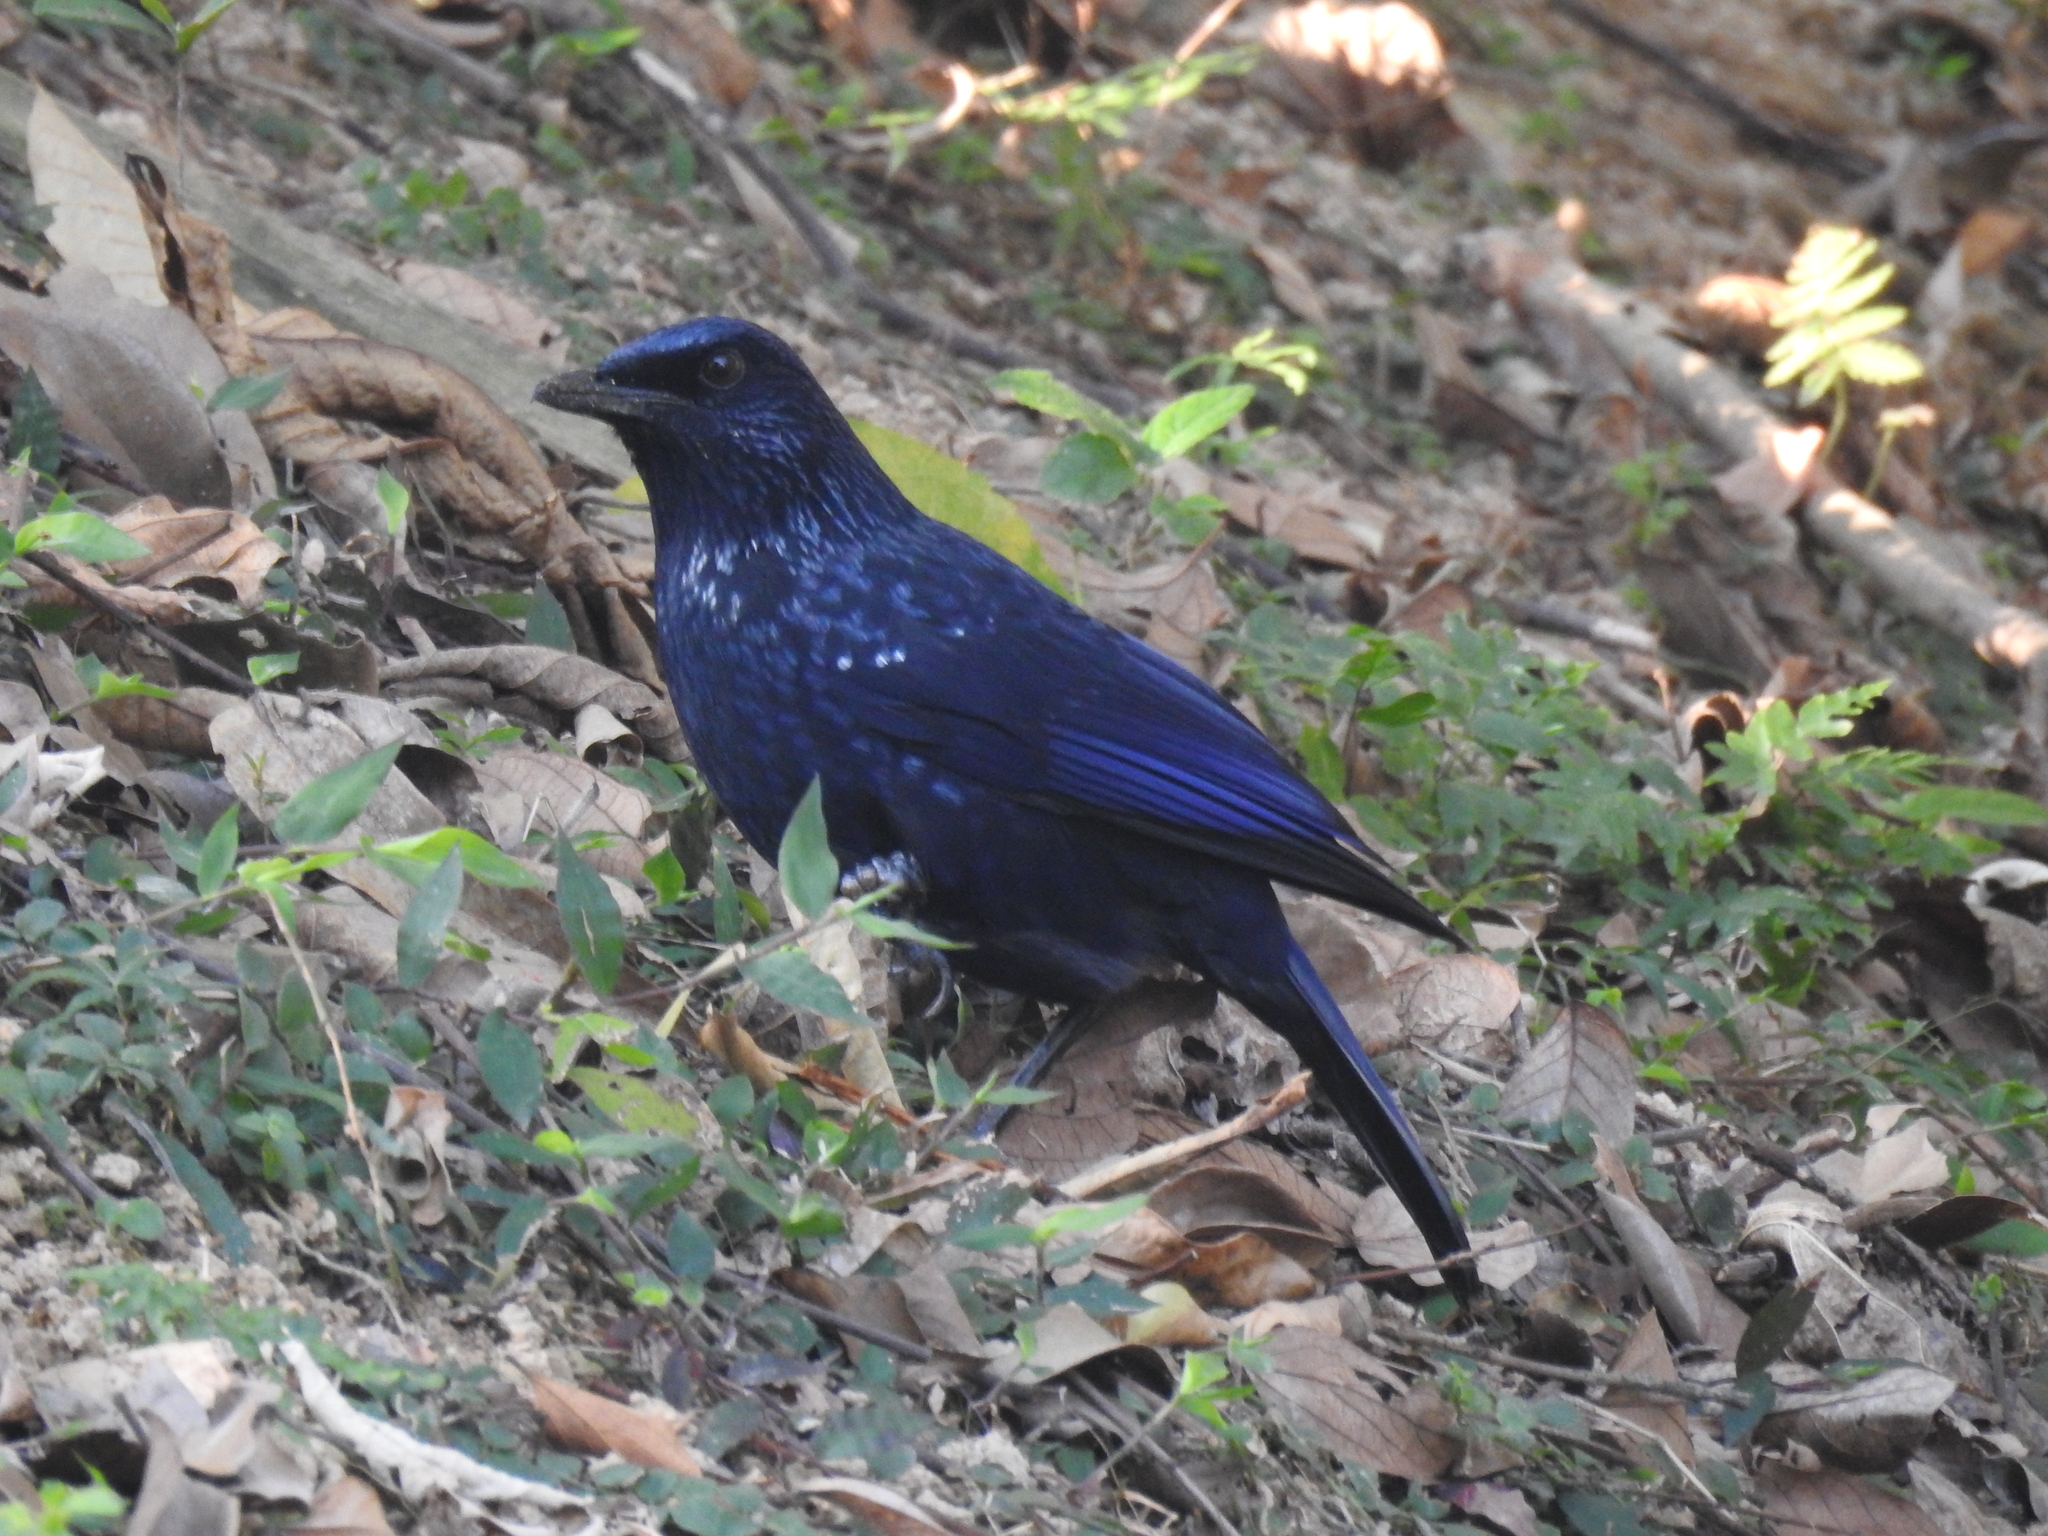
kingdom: Animalia
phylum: Chordata
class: Aves
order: Passeriformes
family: Muscicapidae
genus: Myophonus
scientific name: Myophonus caeruleus
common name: Blue whistling-thrush
